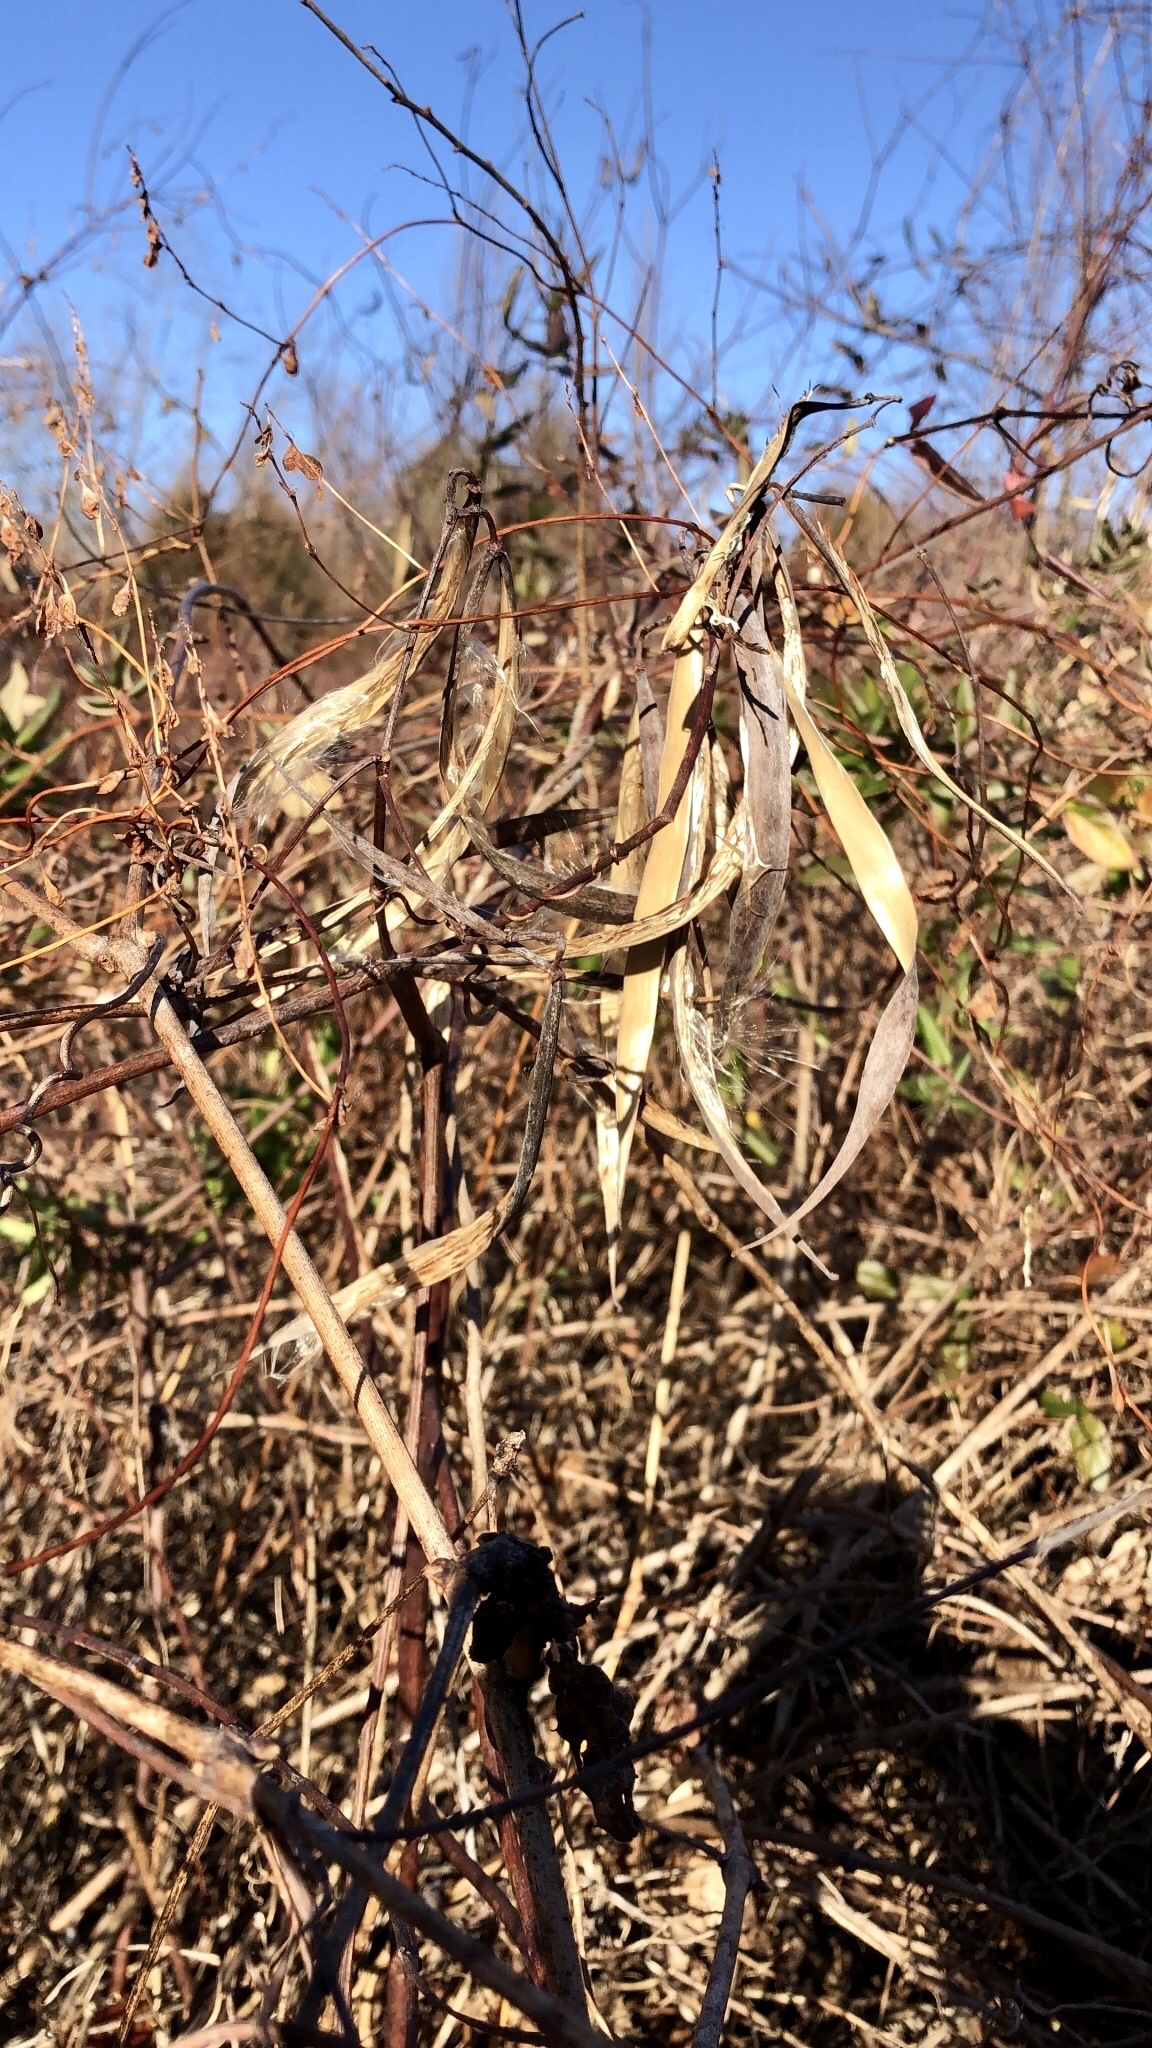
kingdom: Plantae
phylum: Tracheophyta
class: Magnoliopsida
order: Gentianales
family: Apocynaceae
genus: Apocynum
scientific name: Apocynum cannabinum
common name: Hemp dogbane
